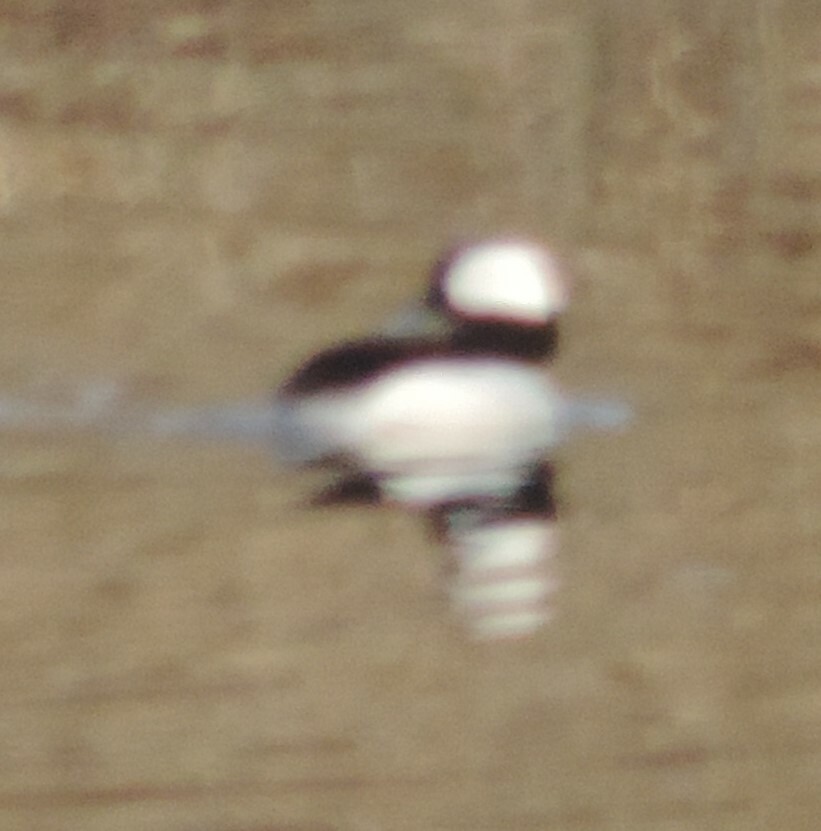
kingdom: Animalia
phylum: Chordata
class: Aves
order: Anseriformes
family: Anatidae
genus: Bucephala
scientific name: Bucephala albeola
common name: Bufflehead
